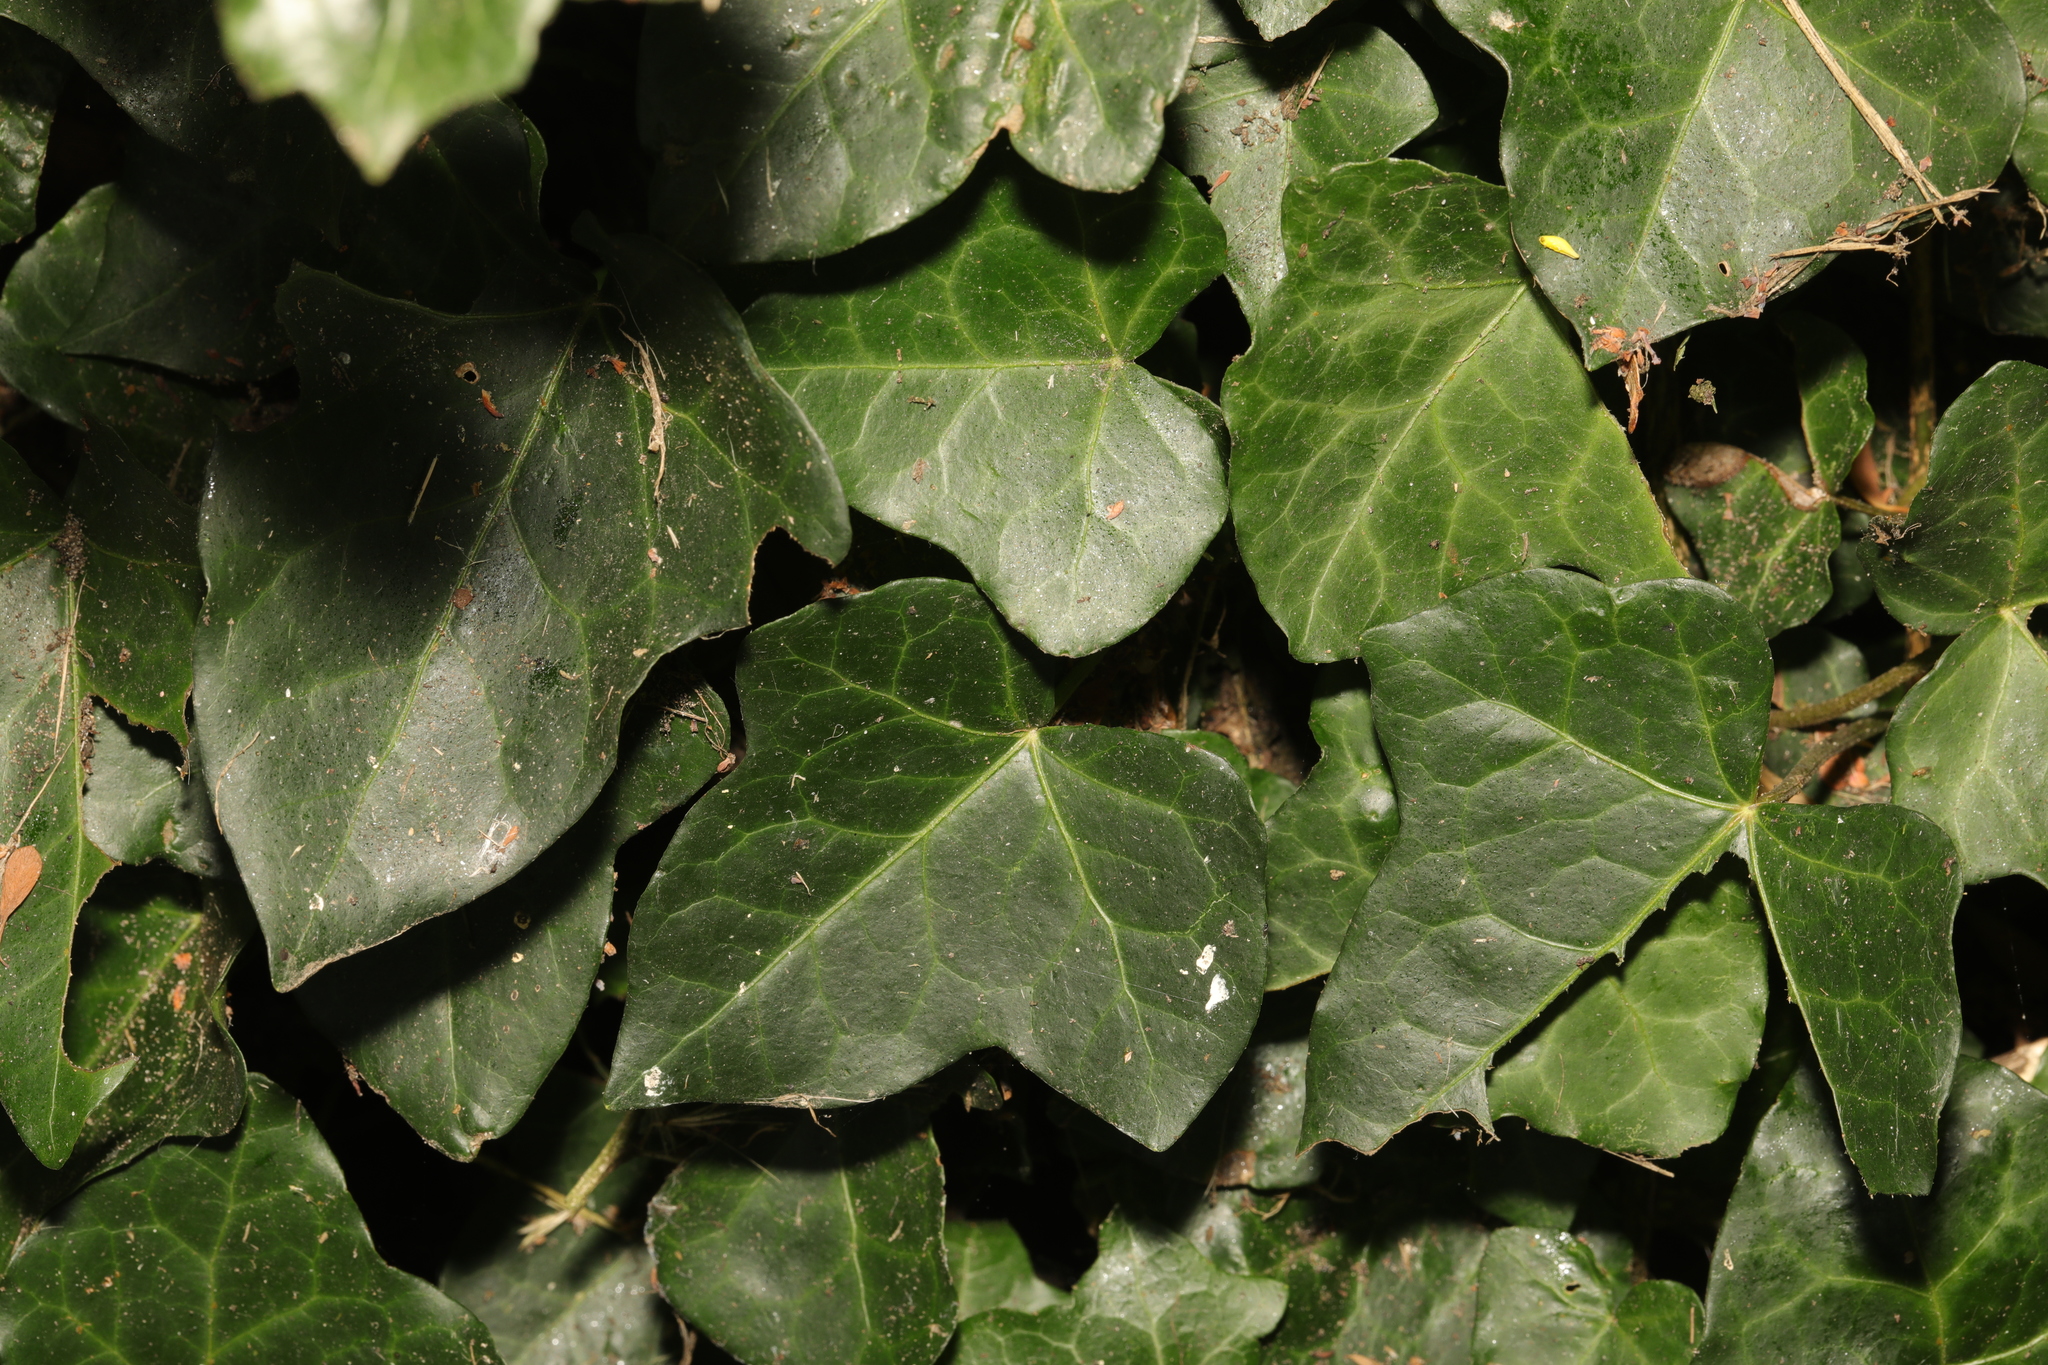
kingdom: Plantae
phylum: Tracheophyta
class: Magnoliopsida
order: Apiales
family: Araliaceae
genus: Hedera
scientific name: Hedera helix
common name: Ivy
